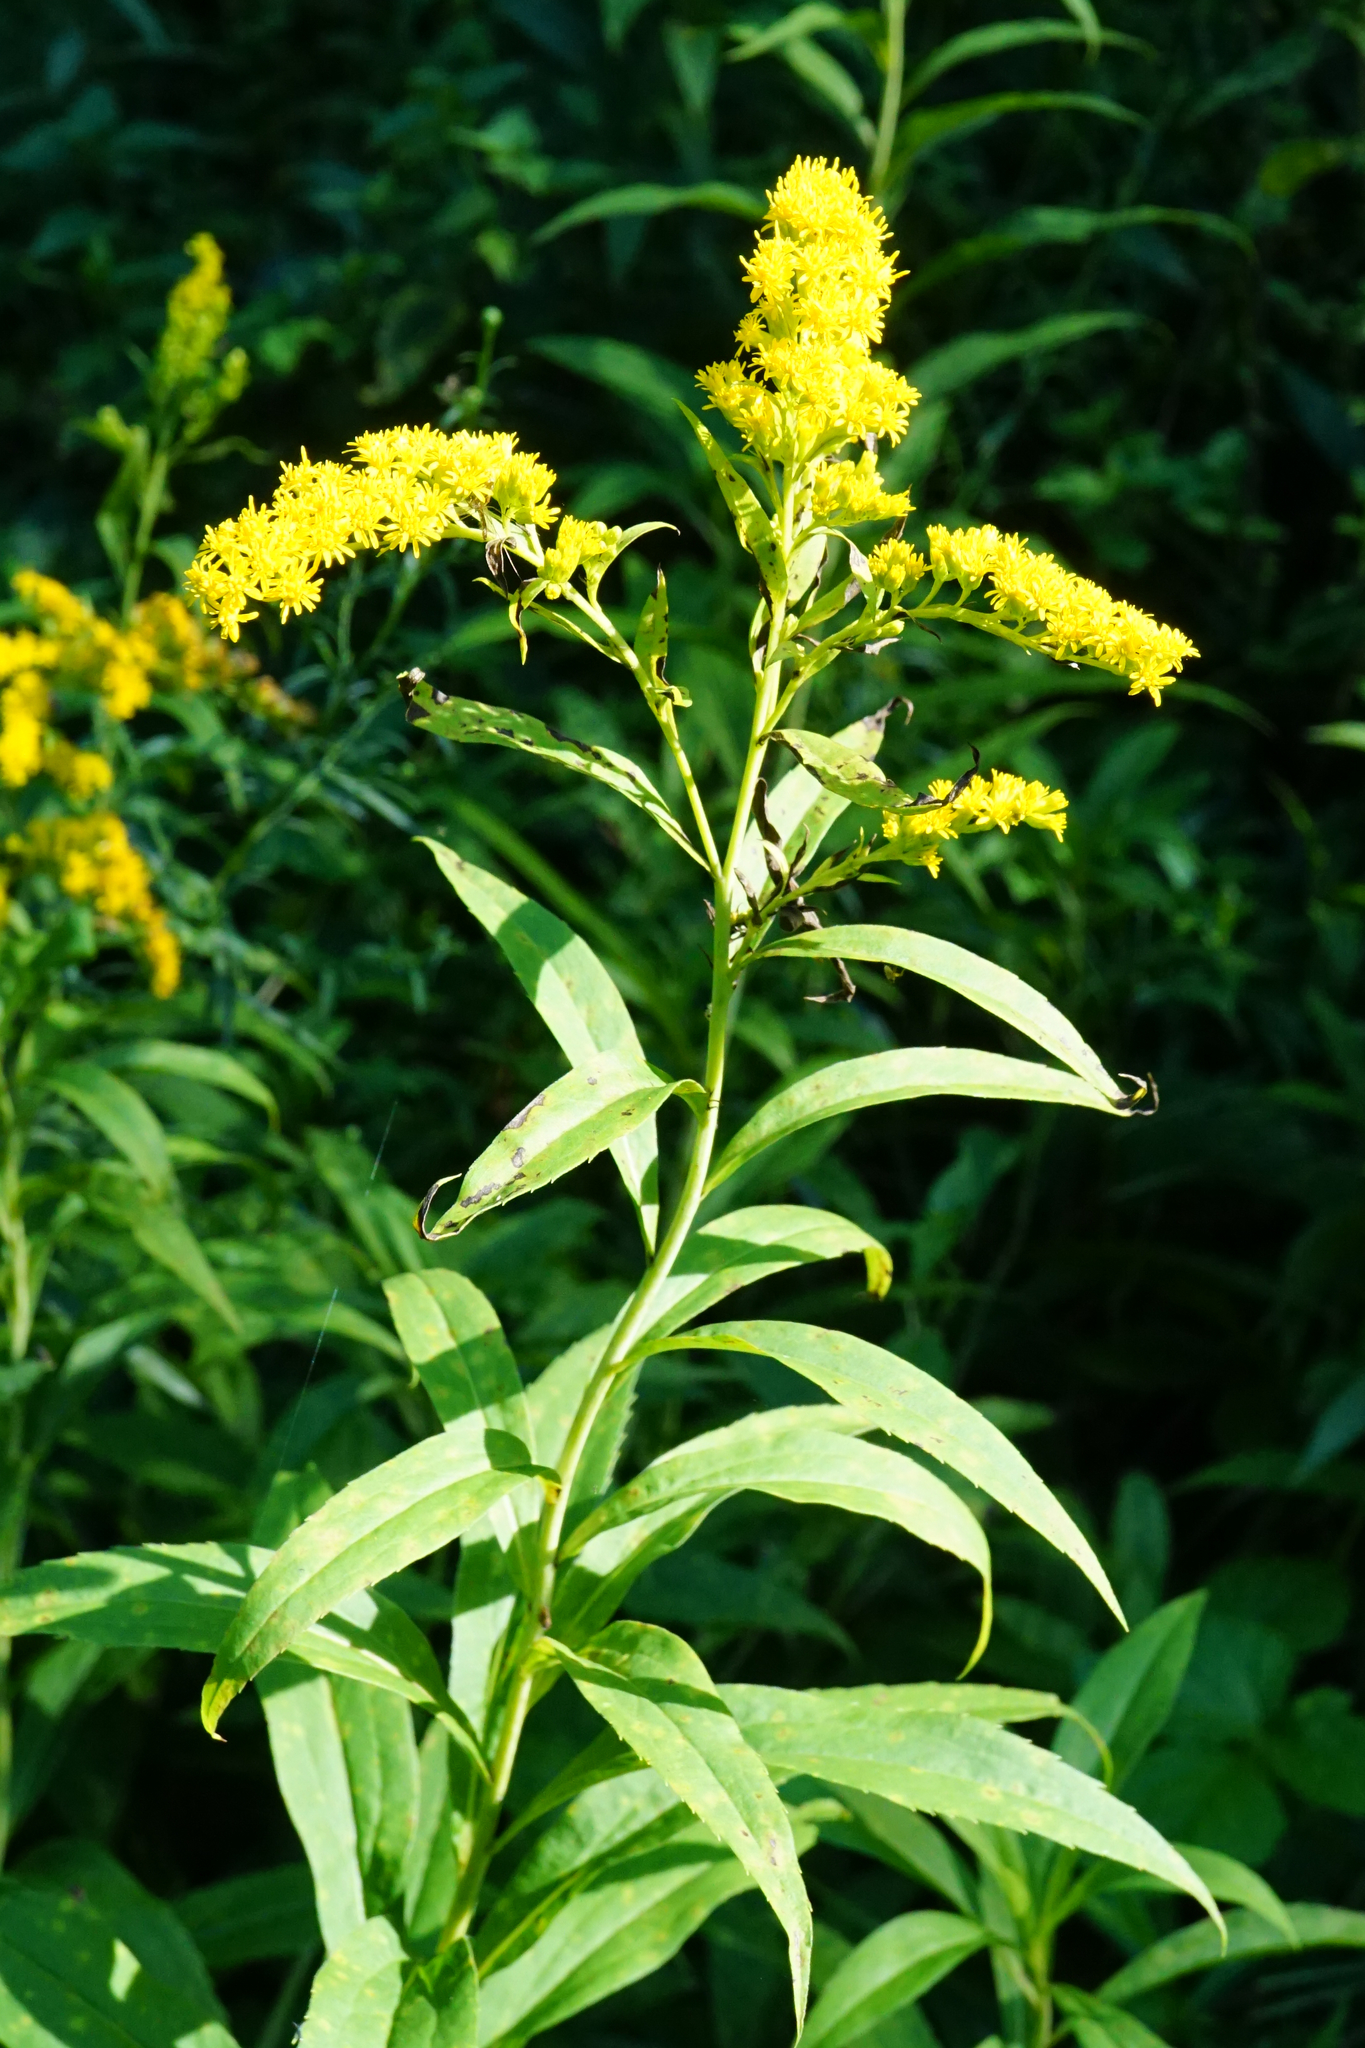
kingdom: Plantae
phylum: Tracheophyta
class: Magnoliopsida
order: Asterales
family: Asteraceae
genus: Solidago
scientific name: Solidago gigantea
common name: Giant goldenrod
